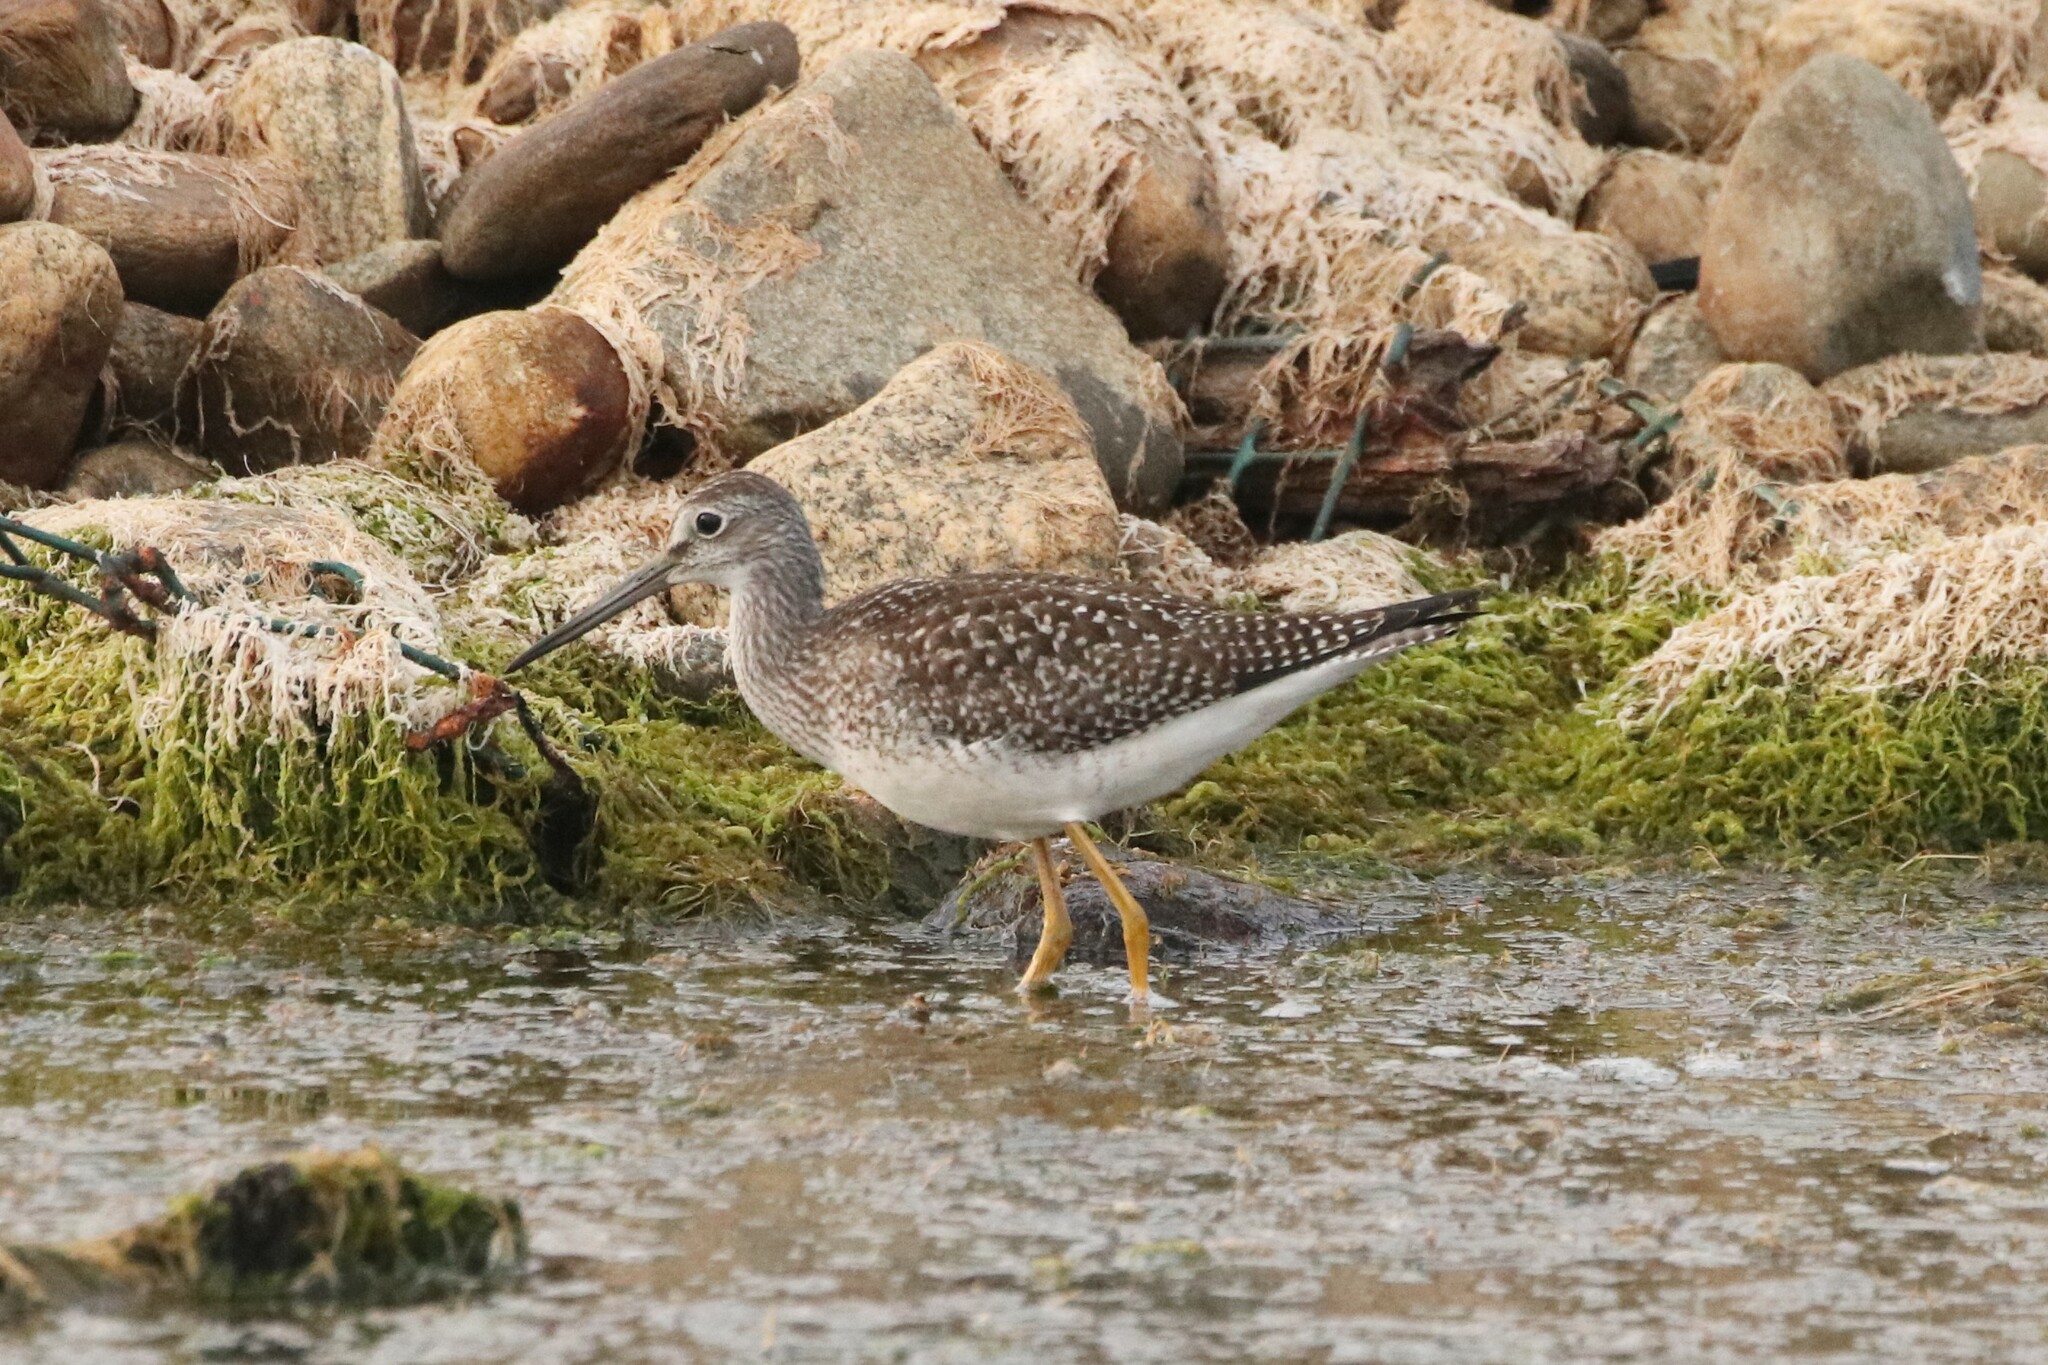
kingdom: Animalia
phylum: Chordata
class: Aves
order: Charadriiformes
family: Scolopacidae
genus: Tringa
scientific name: Tringa melanoleuca
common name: Greater yellowlegs
